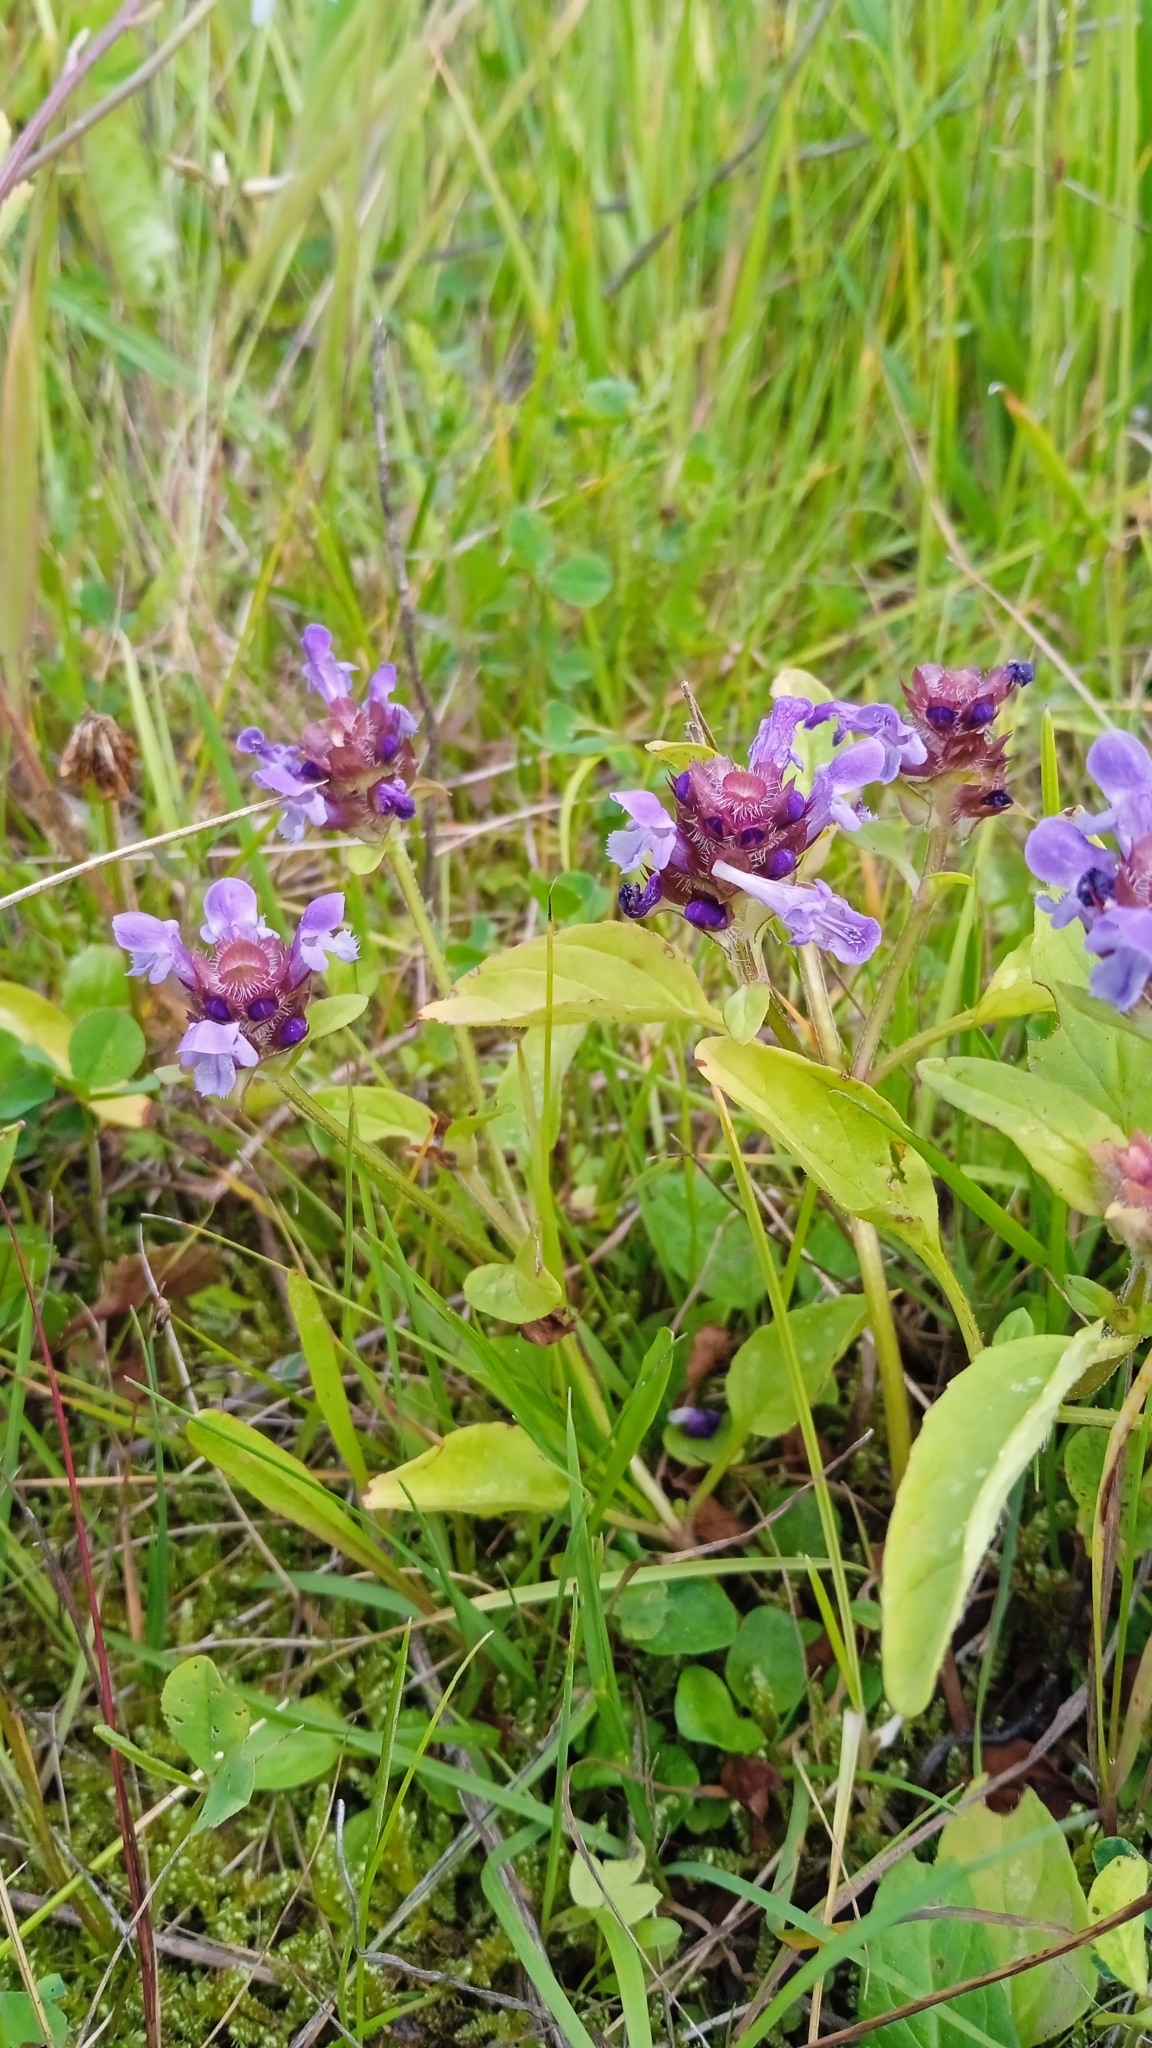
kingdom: Plantae
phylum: Tracheophyta
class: Magnoliopsida
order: Lamiales
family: Lamiaceae
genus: Prunella
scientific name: Prunella vulgaris
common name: Heal-all
